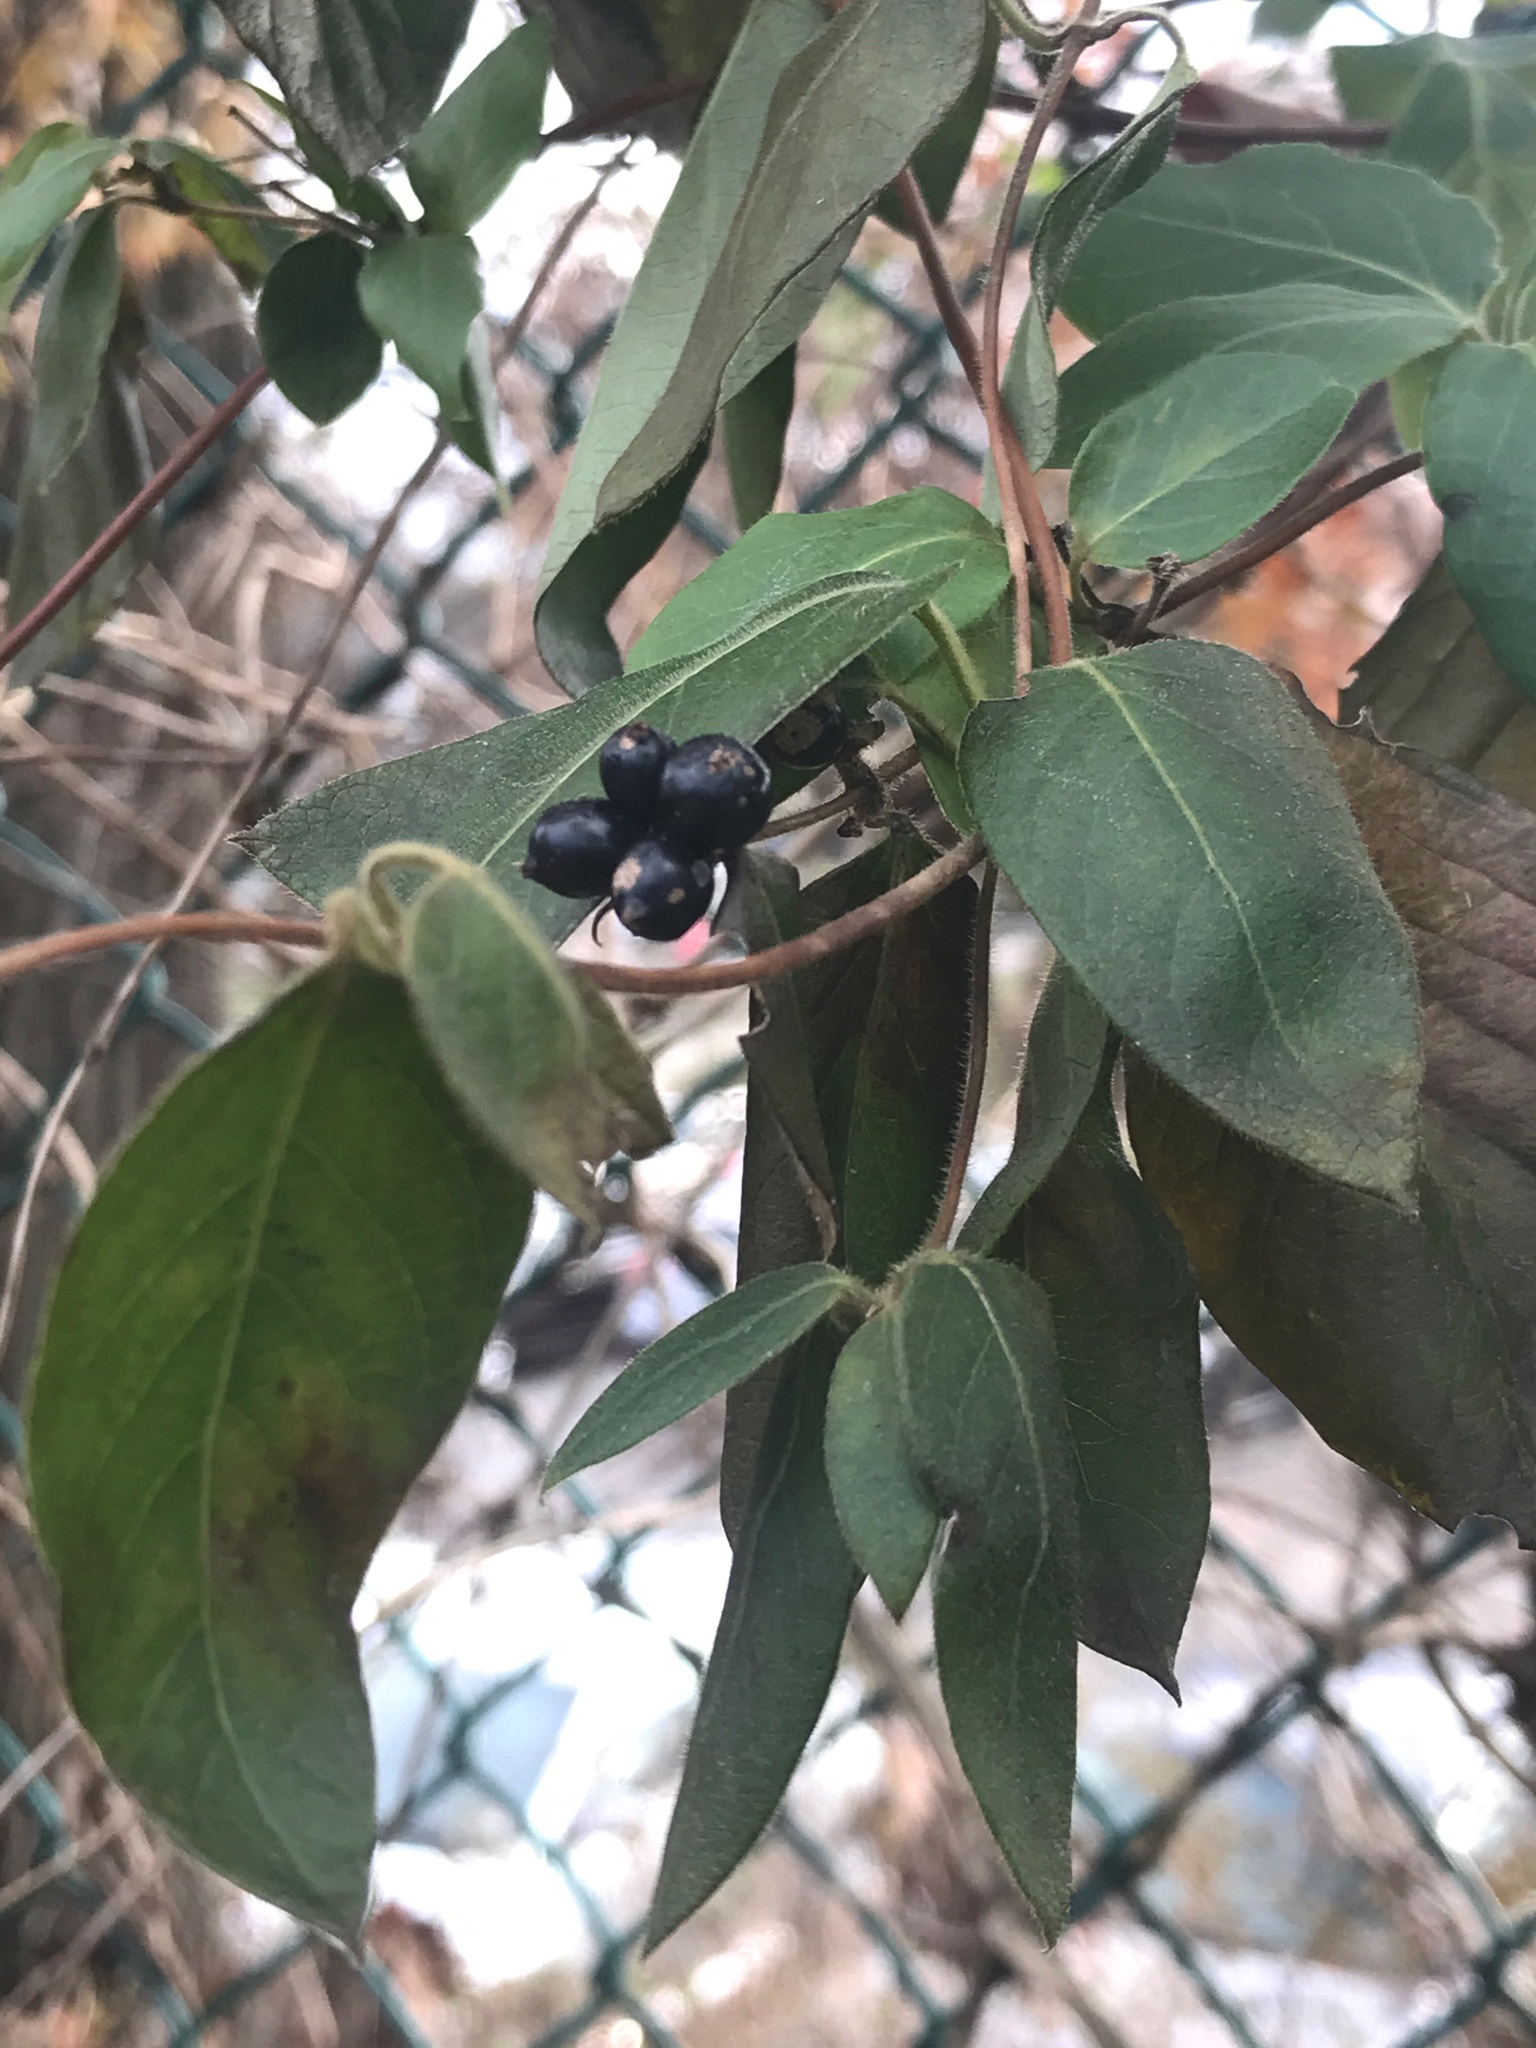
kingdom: Plantae
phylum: Tracheophyta
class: Magnoliopsida
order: Dipsacales
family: Caprifoliaceae
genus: Lonicera
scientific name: Lonicera japonica
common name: Japanese honeysuckle
